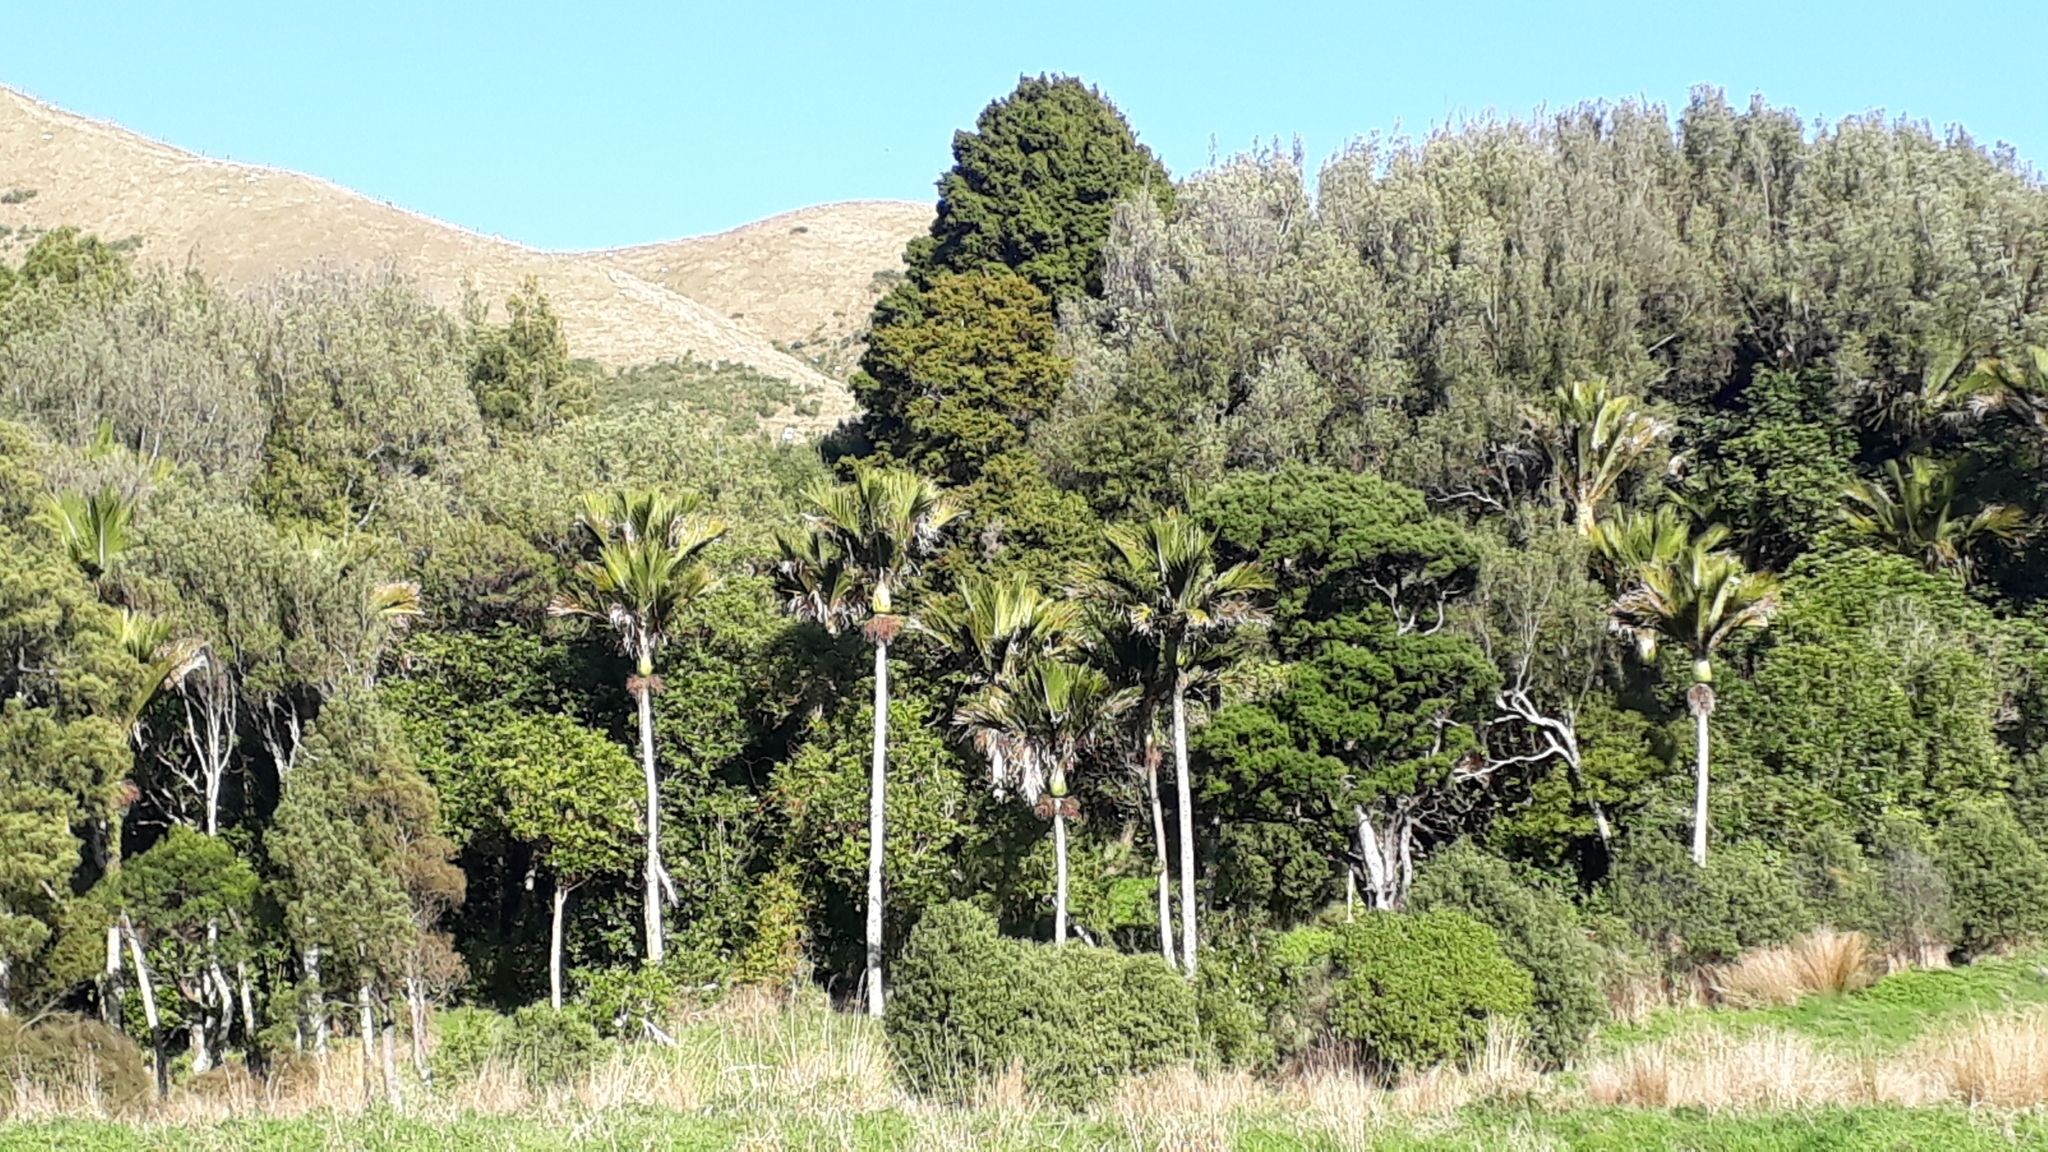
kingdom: Plantae
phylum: Tracheophyta
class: Liliopsida
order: Arecales
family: Arecaceae
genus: Rhopalostylis
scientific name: Rhopalostylis sapida
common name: Feather-duster palm
